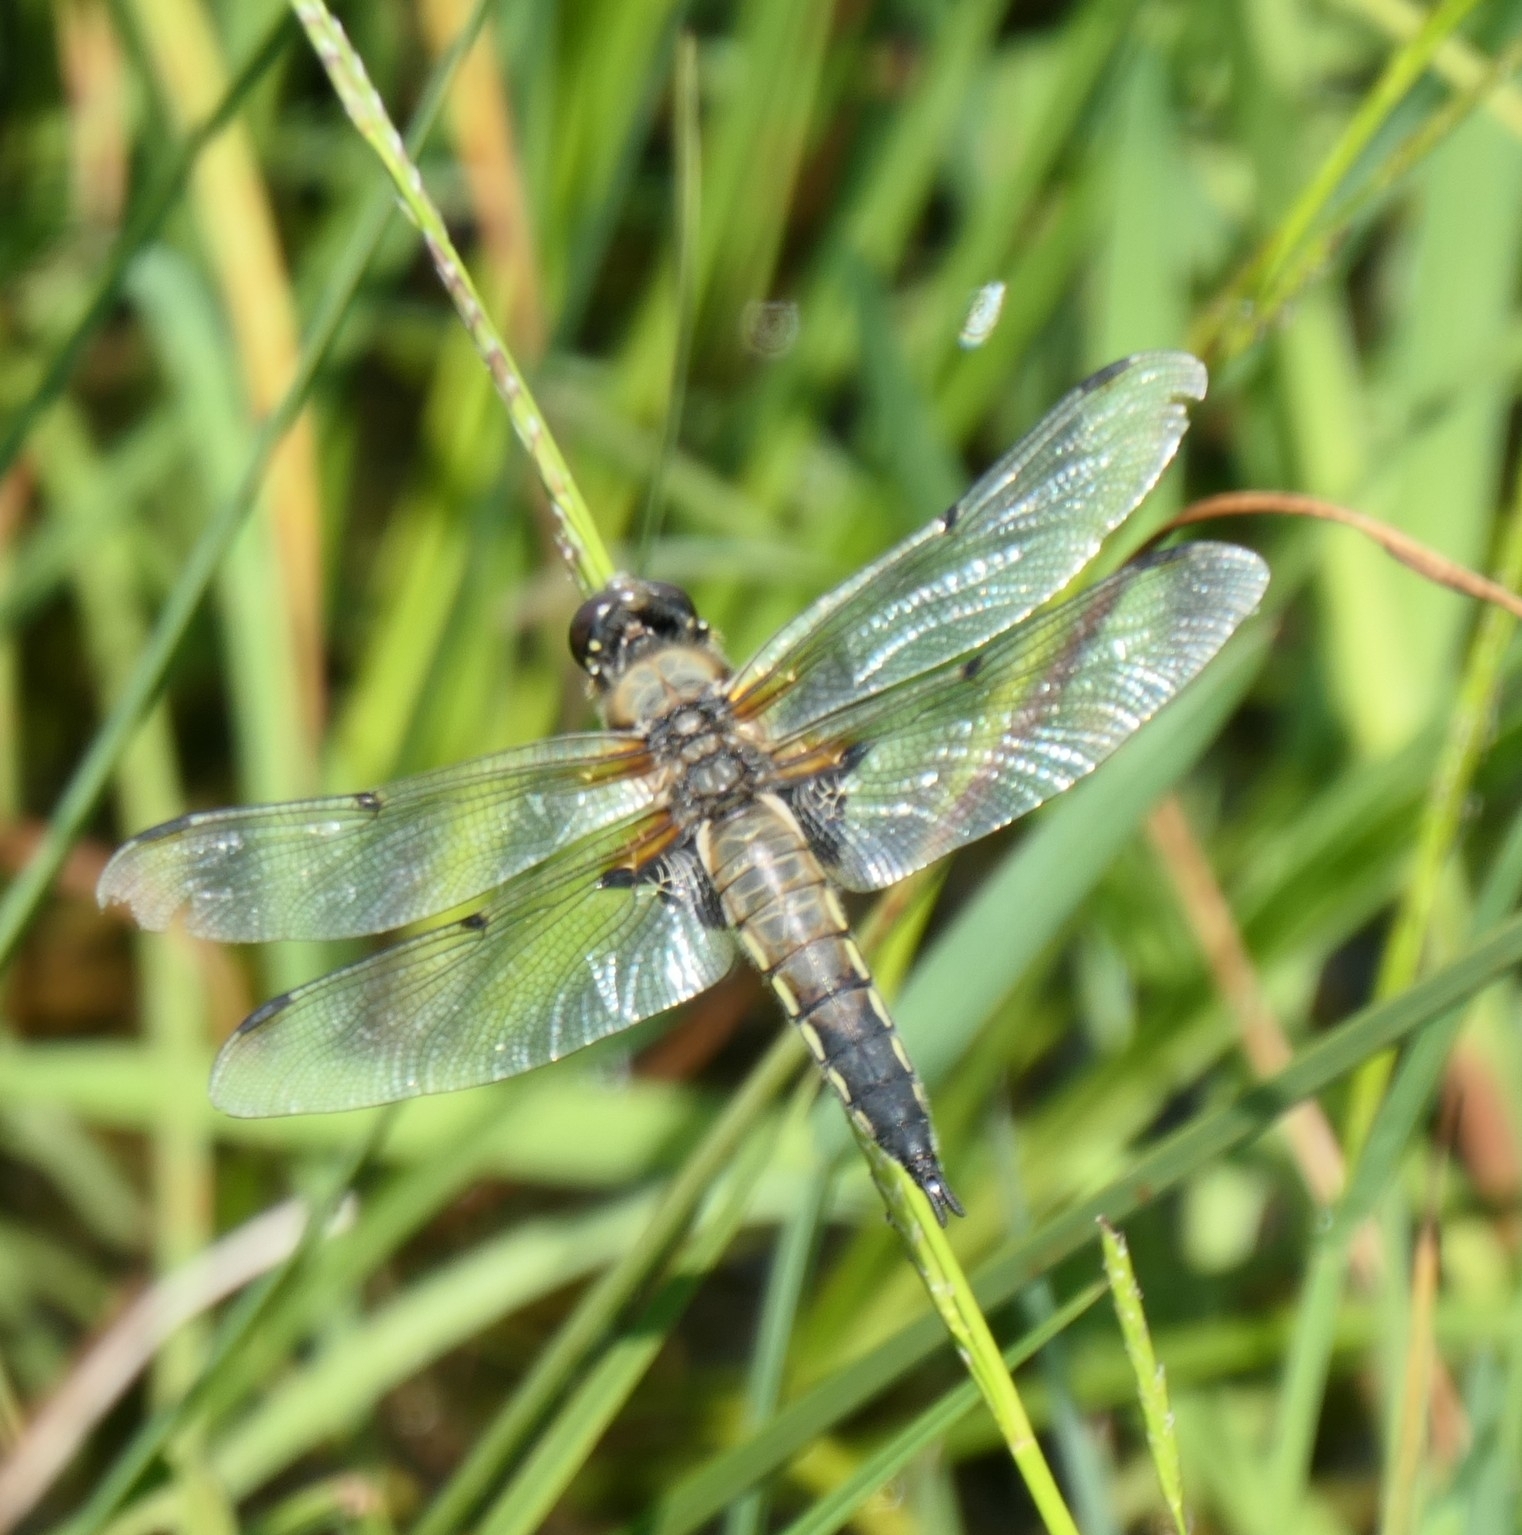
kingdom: Animalia
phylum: Arthropoda
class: Insecta
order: Odonata
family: Libellulidae
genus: Libellula
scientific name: Libellula quadrimaculata
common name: Four-spotted chaser
